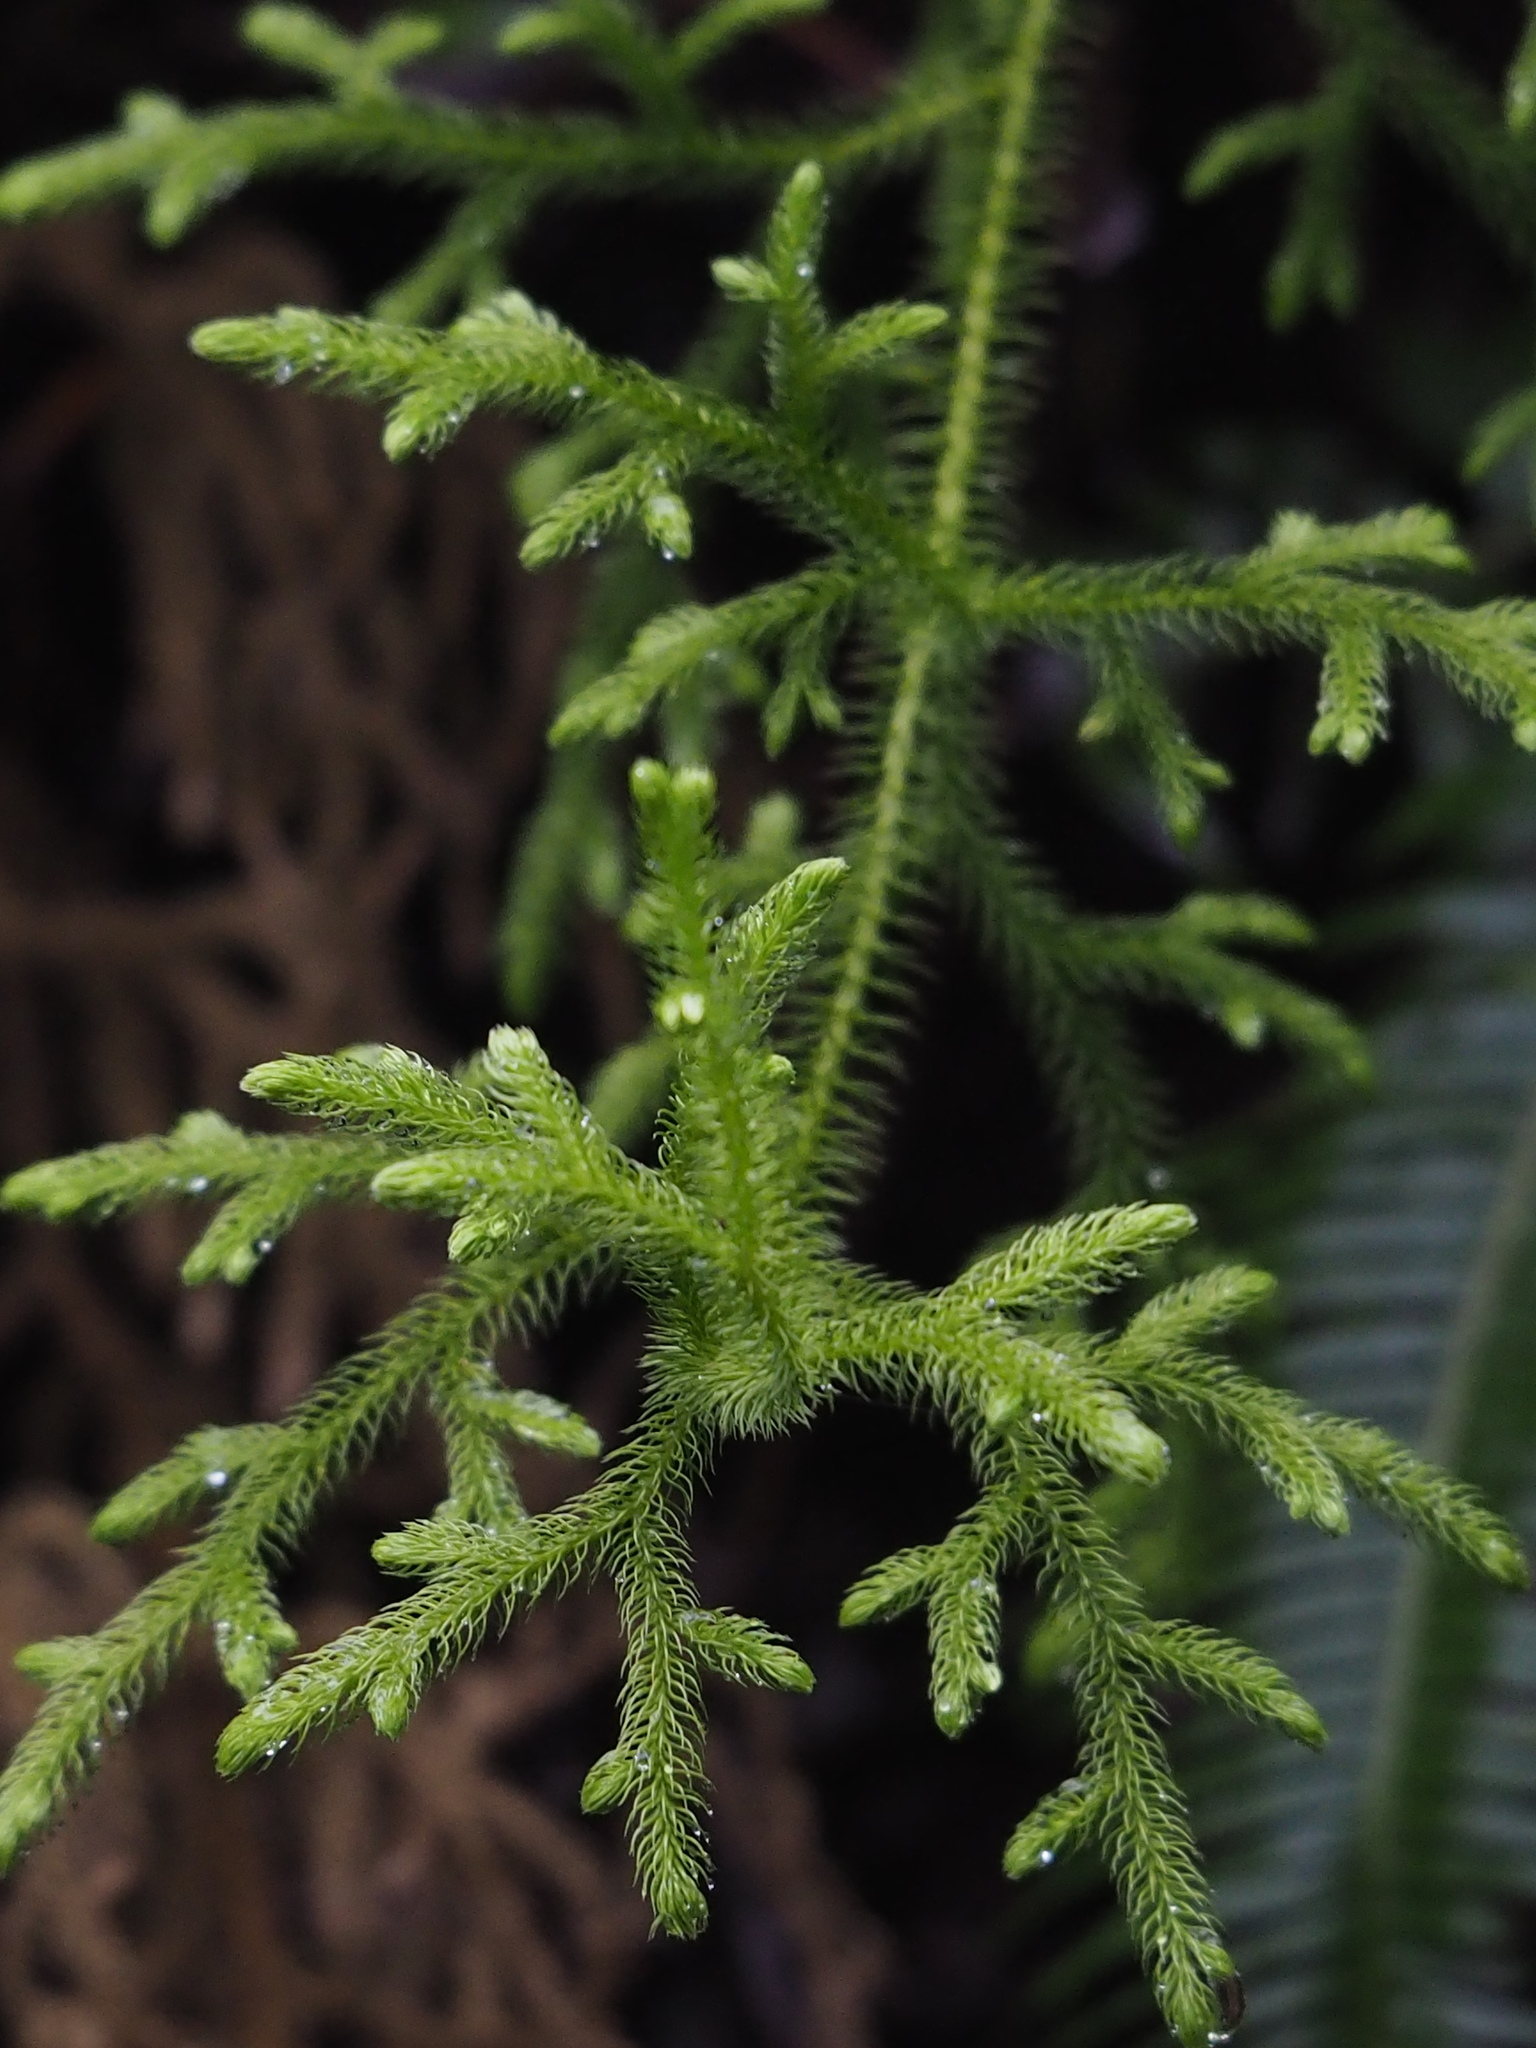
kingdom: Plantae
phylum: Tracheophyta
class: Lycopodiopsida
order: Lycopodiales
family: Lycopodiaceae
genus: Palhinhaea
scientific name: Palhinhaea cernua
